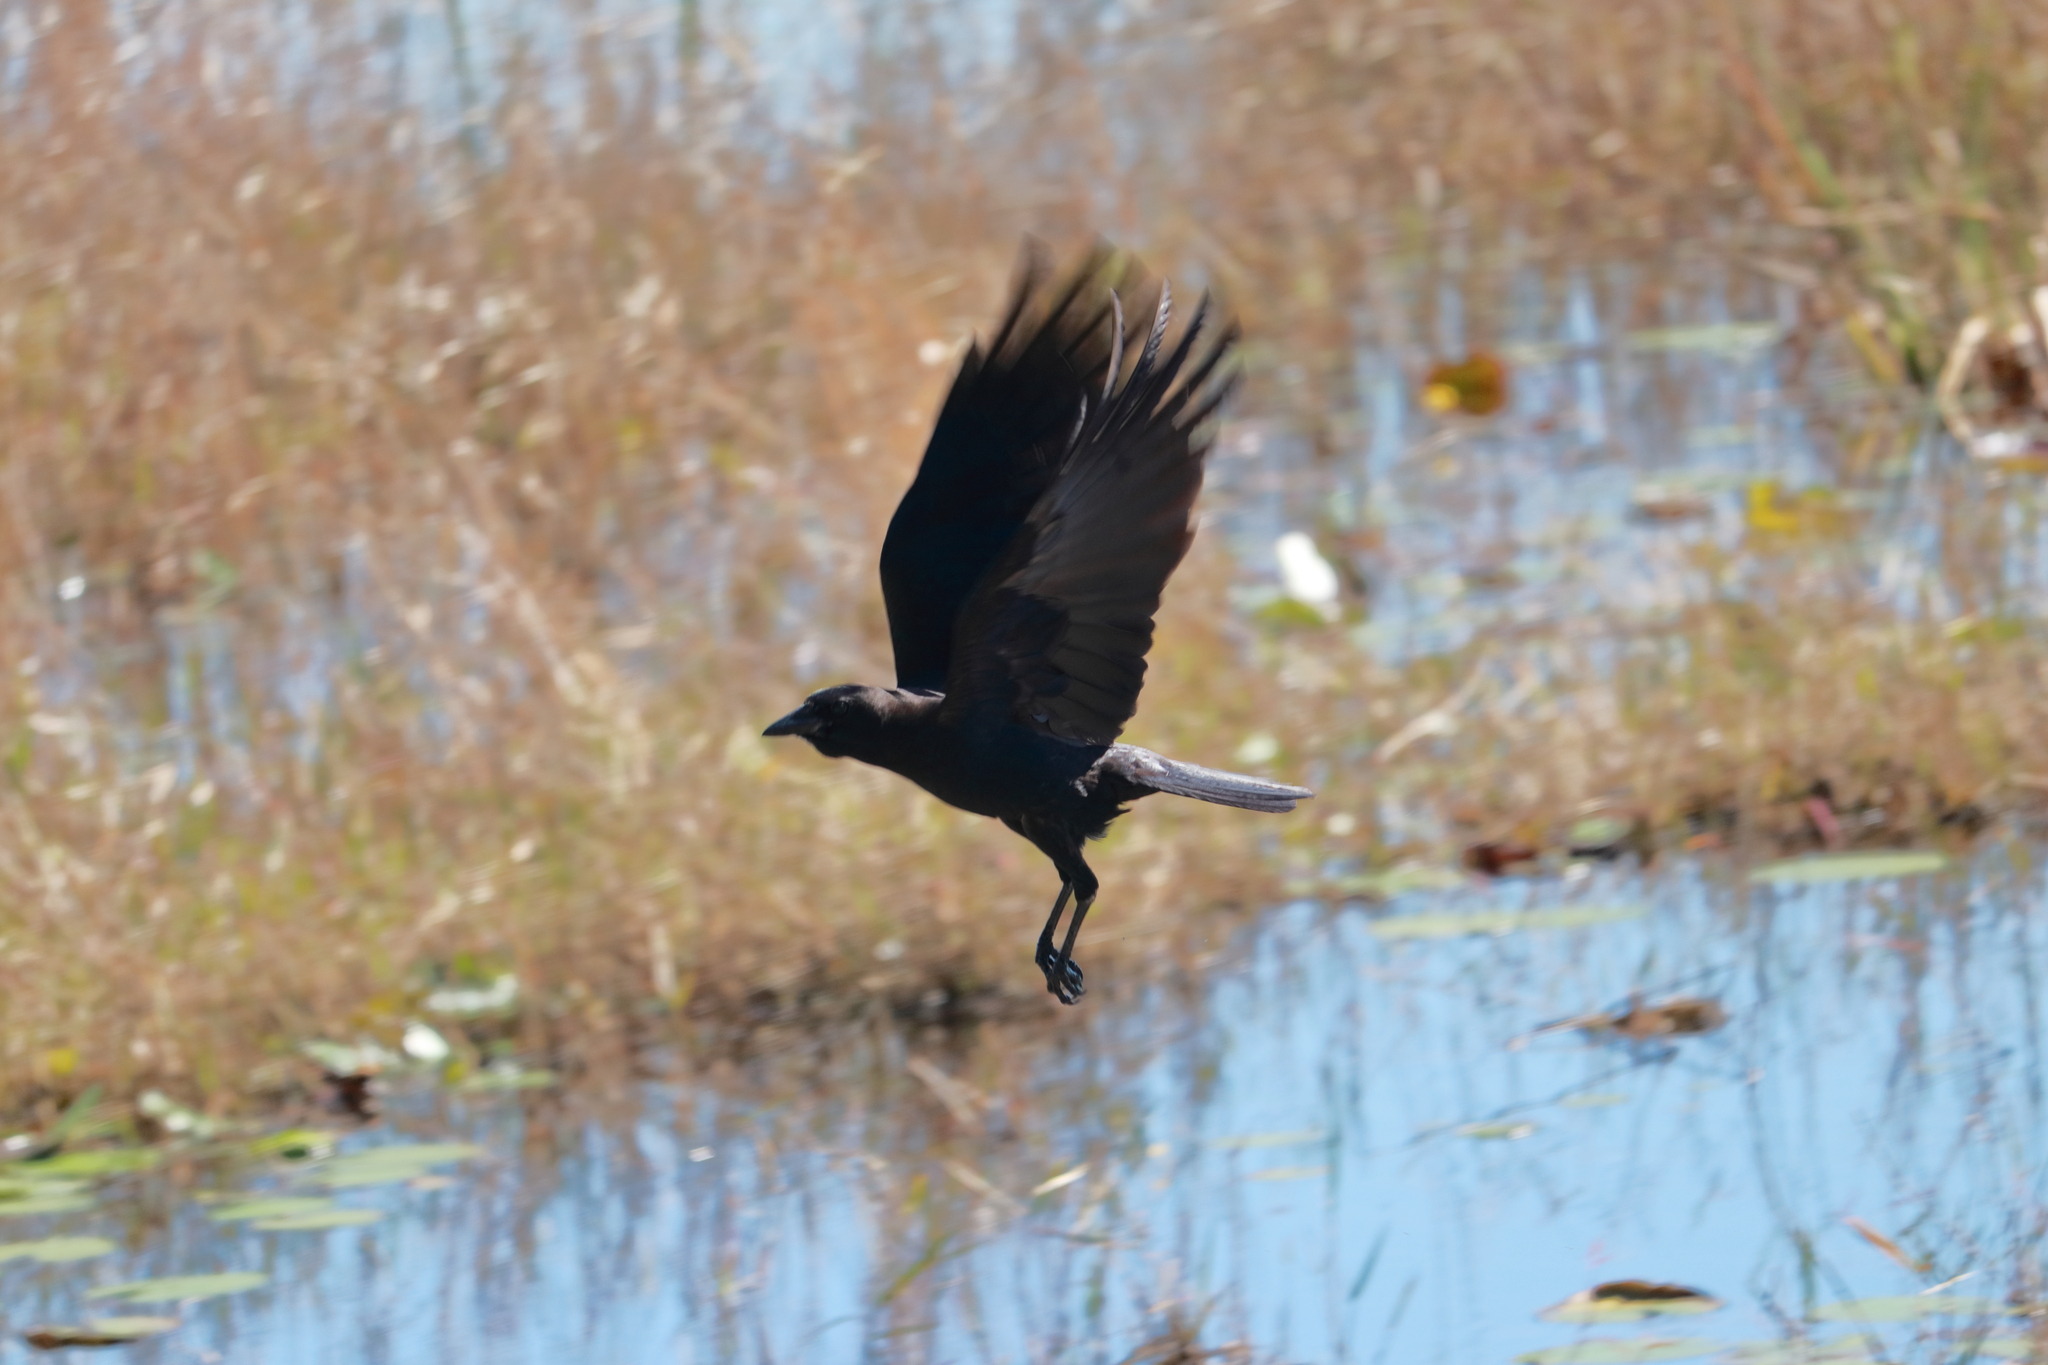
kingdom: Animalia
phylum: Chordata
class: Aves
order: Passeriformes
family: Corvidae
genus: Corvus
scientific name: Corvus
